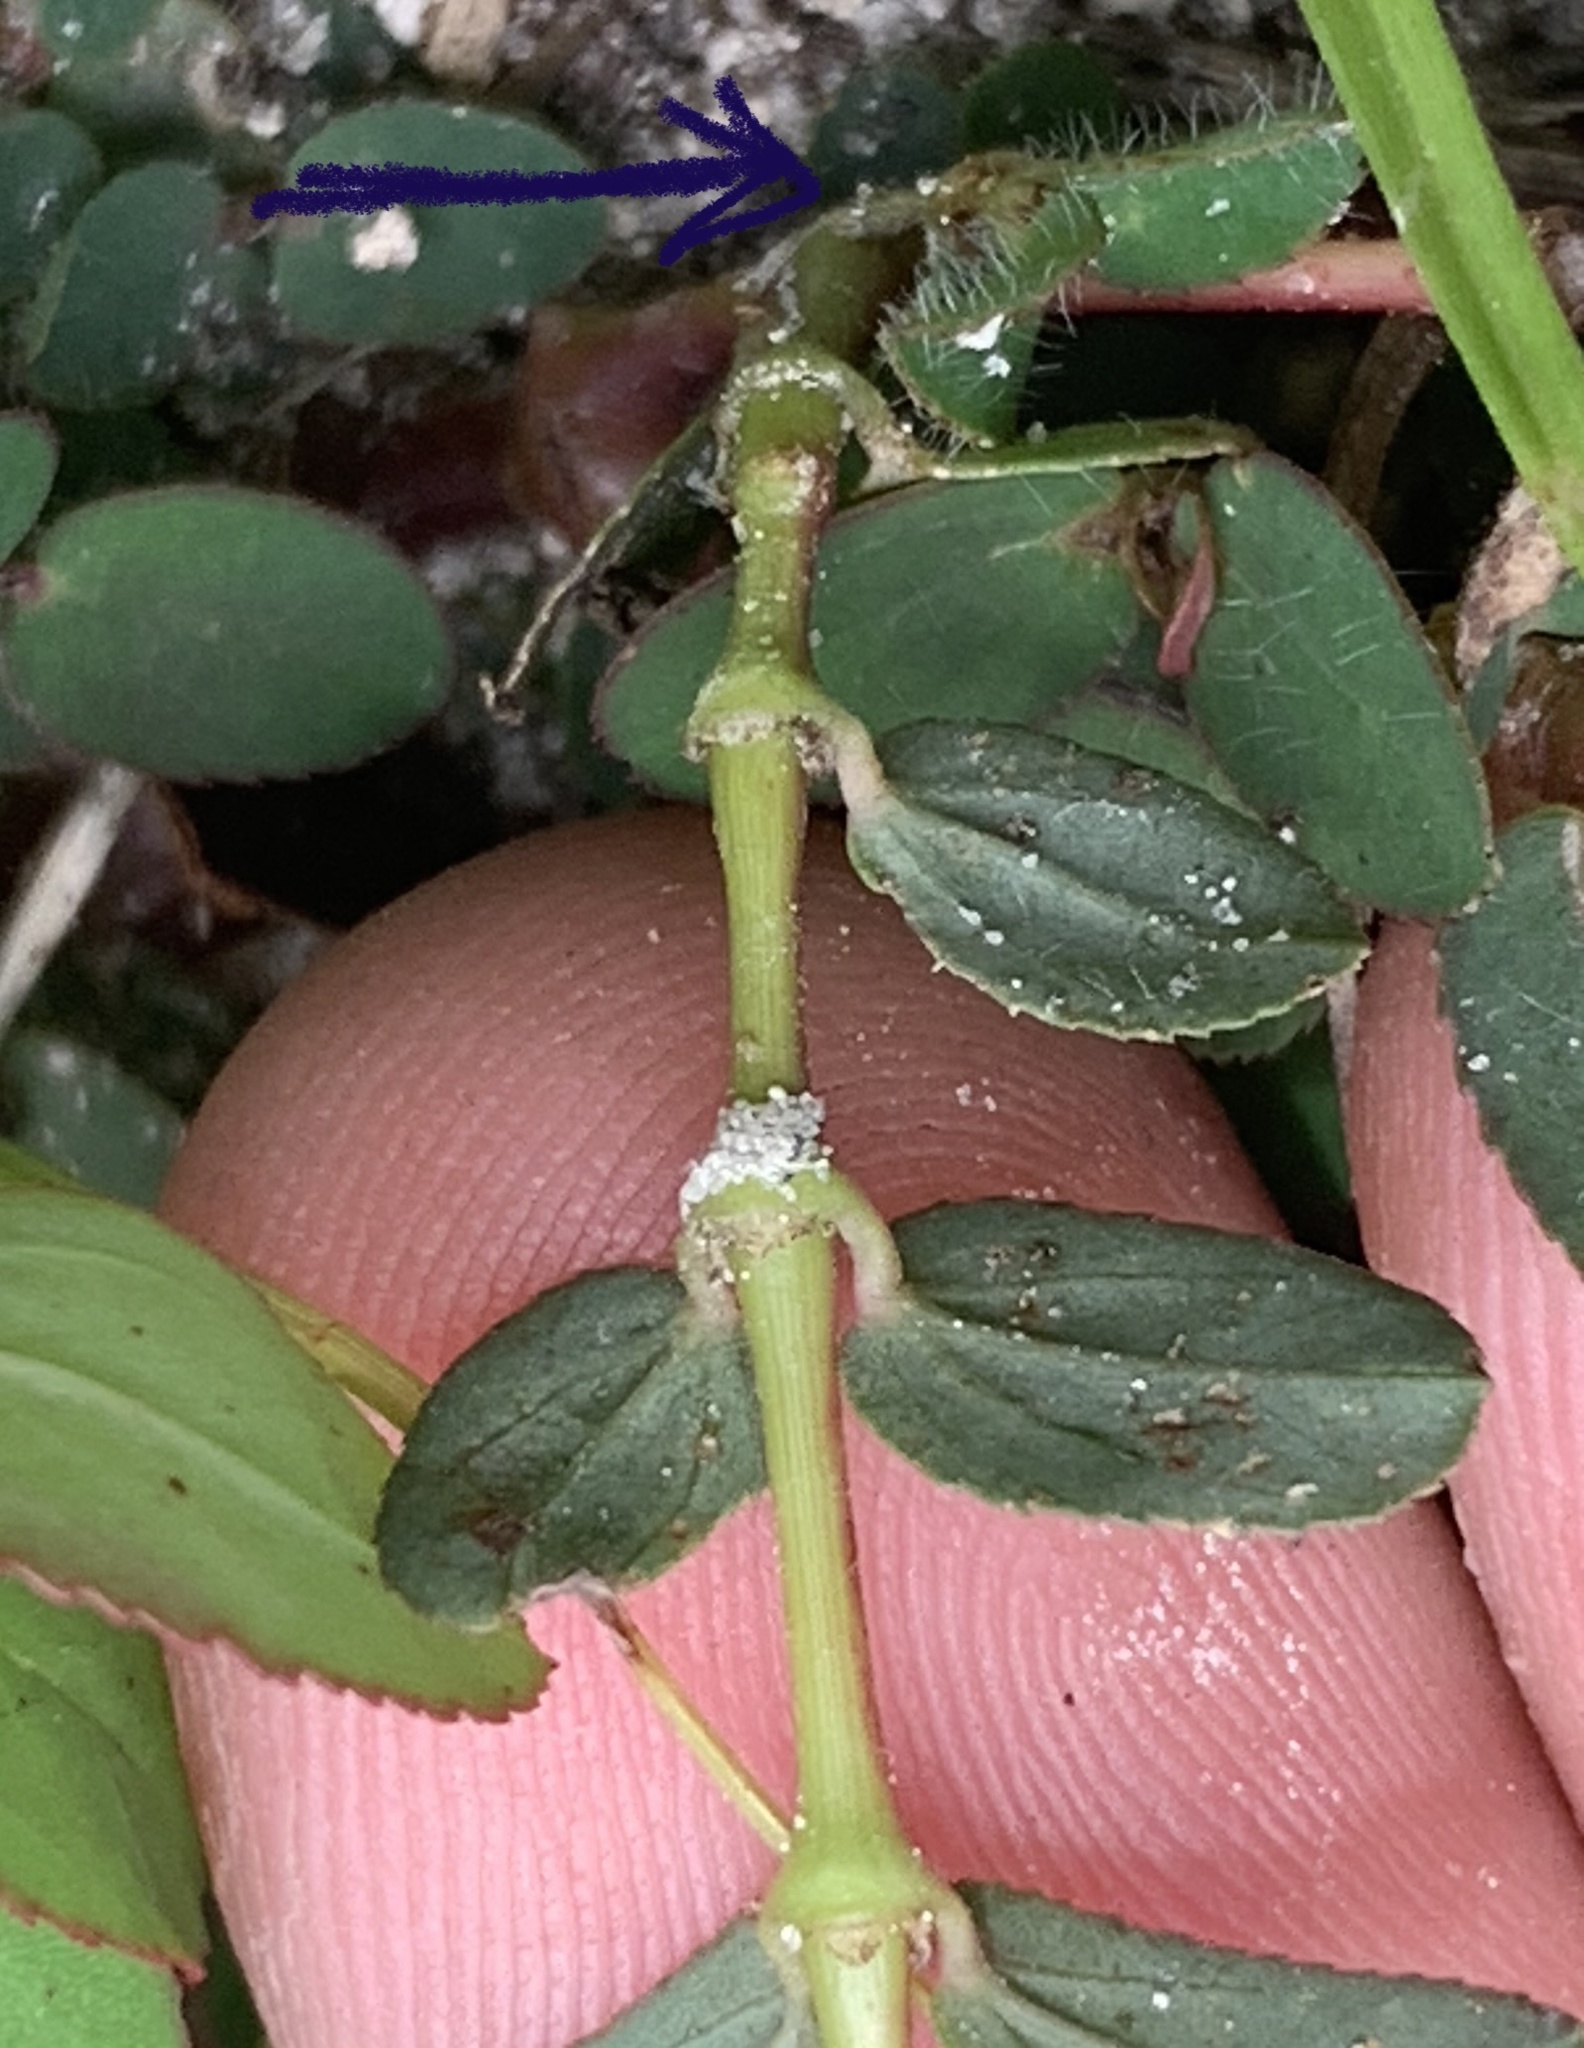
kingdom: Plantae
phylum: Tracheophyta
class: Magnoliopsida
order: Malpighiales
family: Euphorbiaceae
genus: Euphorbia
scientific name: Euphorbia hyssopifolia
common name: Hyssopleaf sandmat
